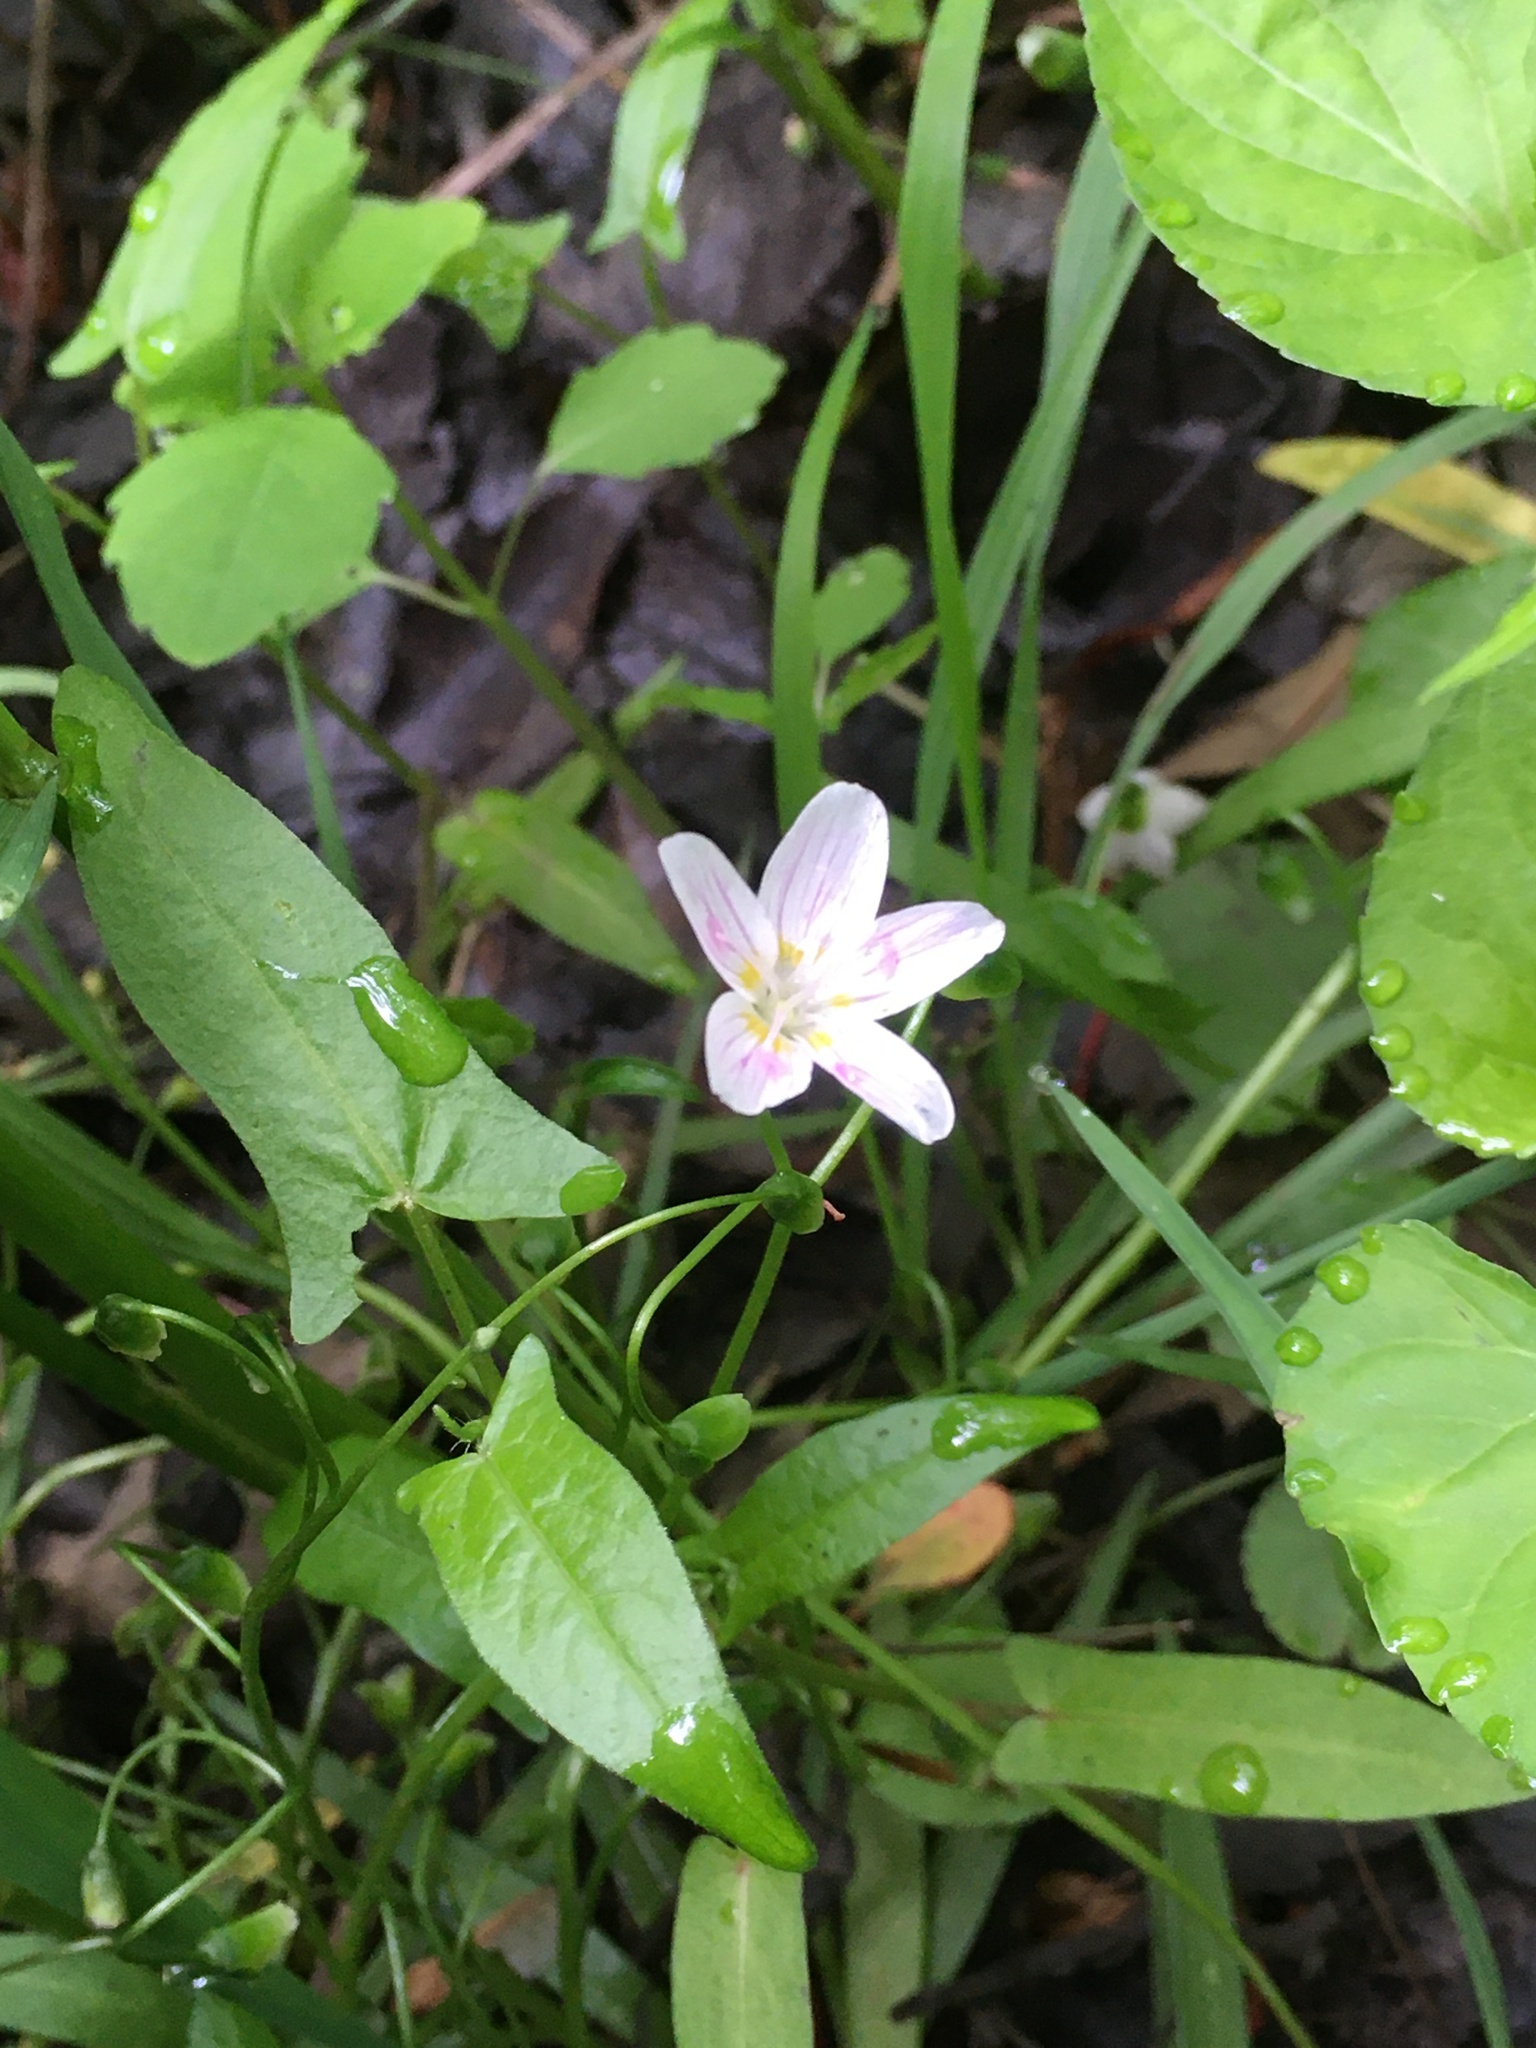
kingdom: Plantae
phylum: Tracheophyta
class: Magnoliopsida
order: Caryophyllales
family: Montiaceae
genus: Claytonia
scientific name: Claytonia virginica
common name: Virginia springbeauty
